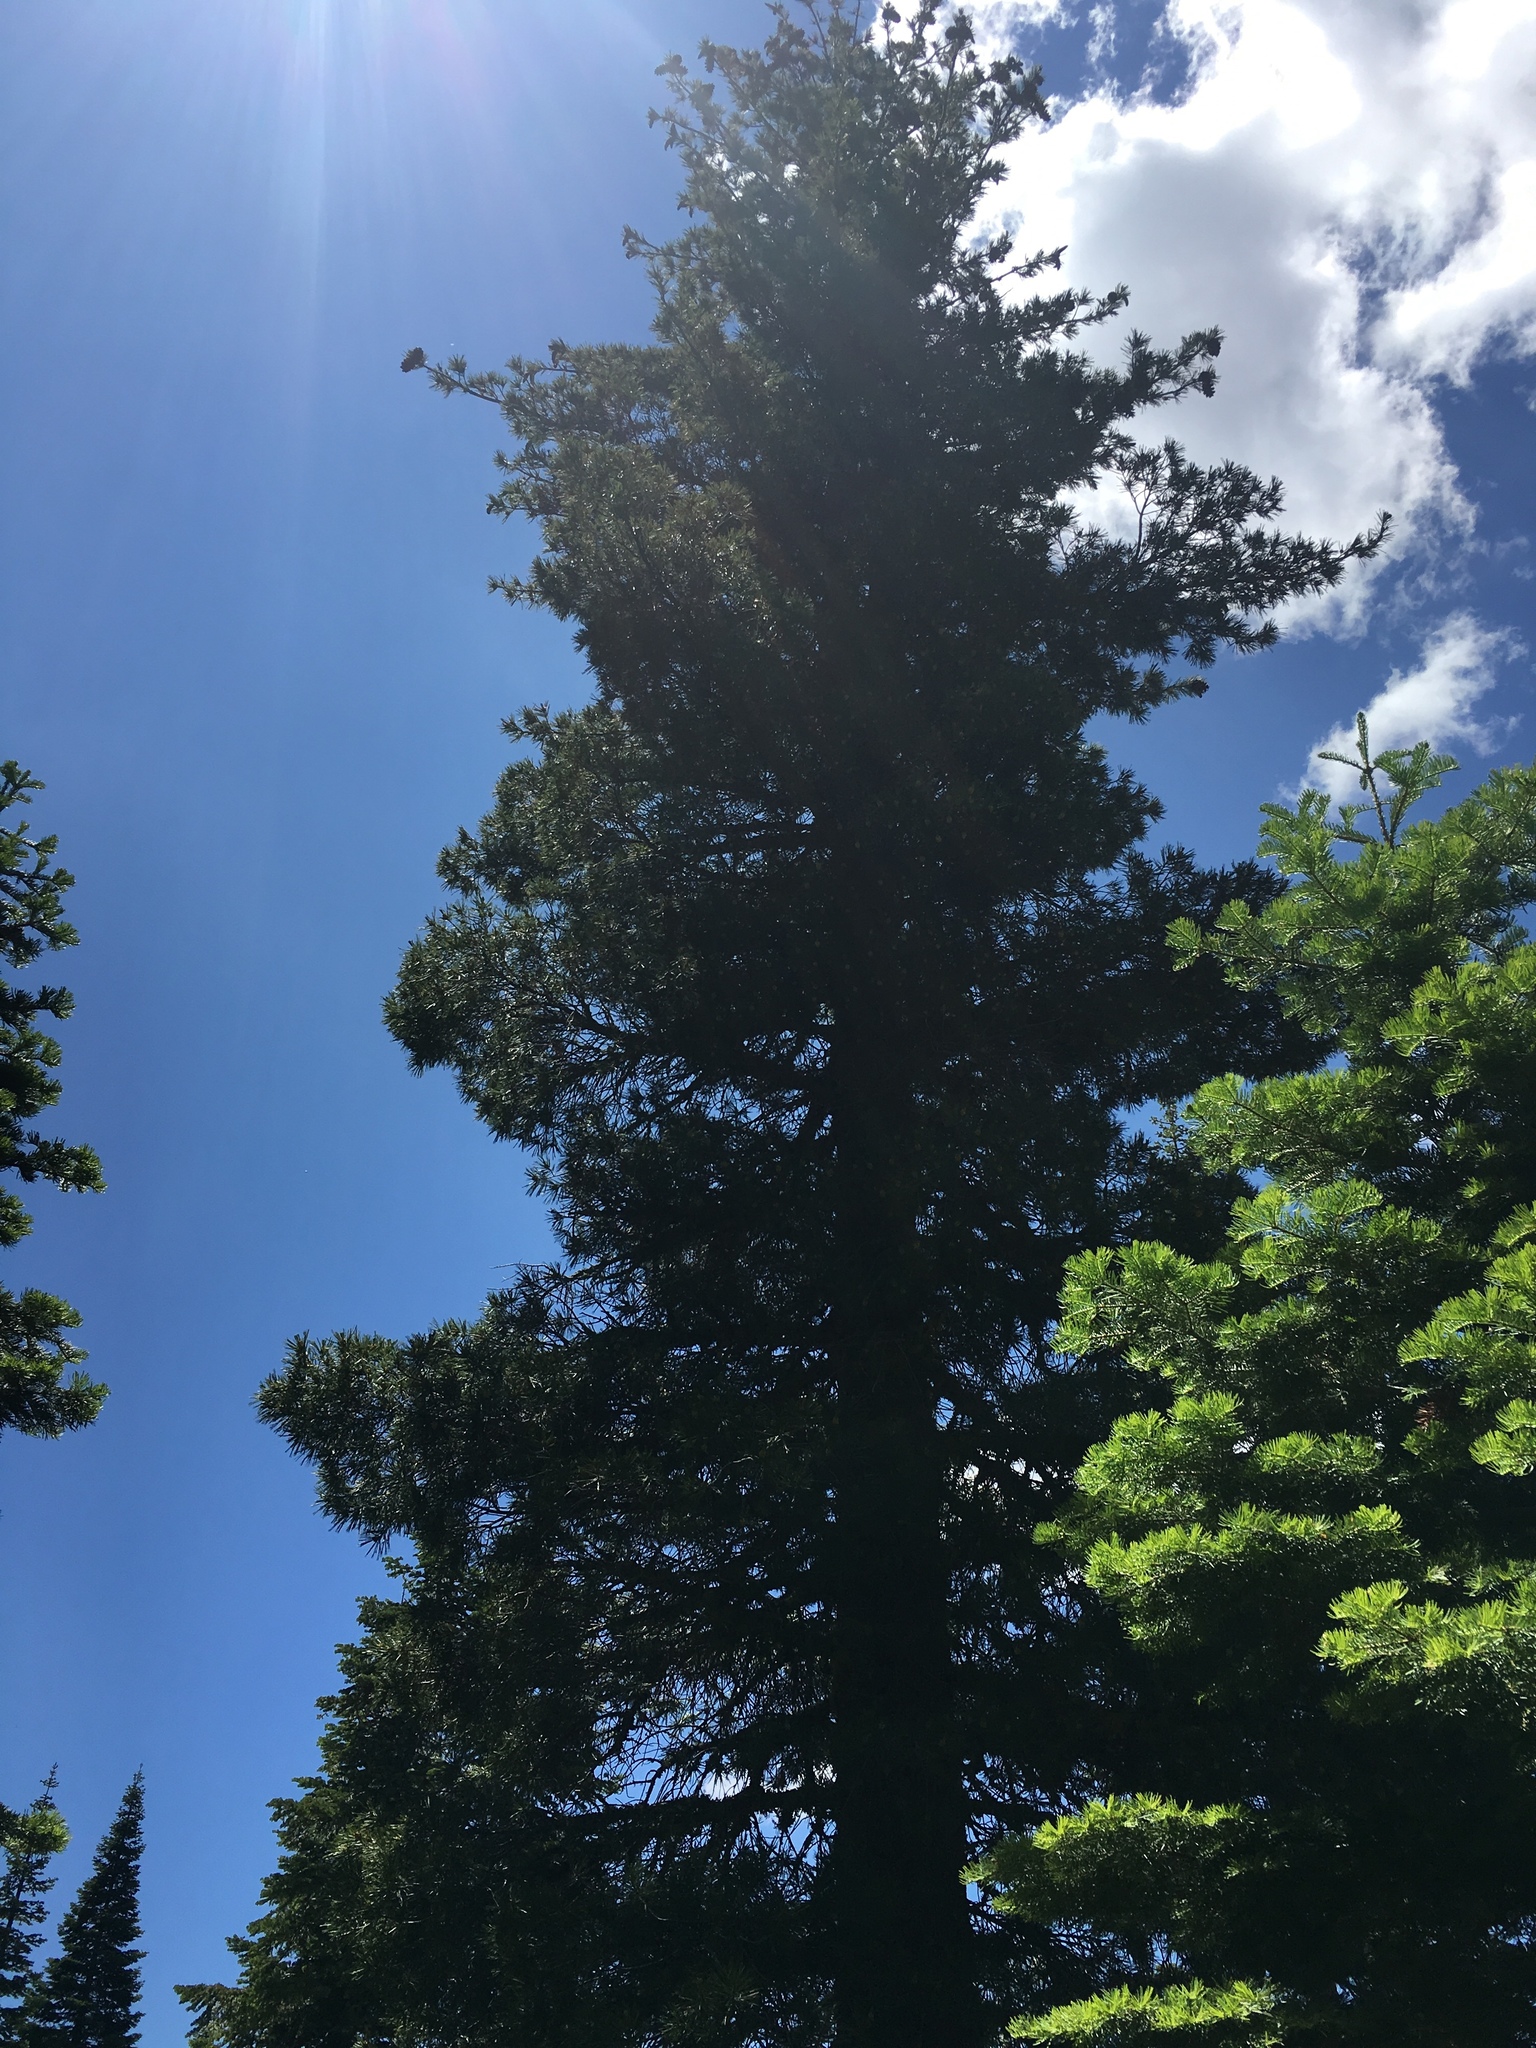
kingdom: Plantae
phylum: Tracheophyta
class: Pinopsida
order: Pinales
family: Pinaceae
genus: Pinus
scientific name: Pinus monticola
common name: Western white pine
